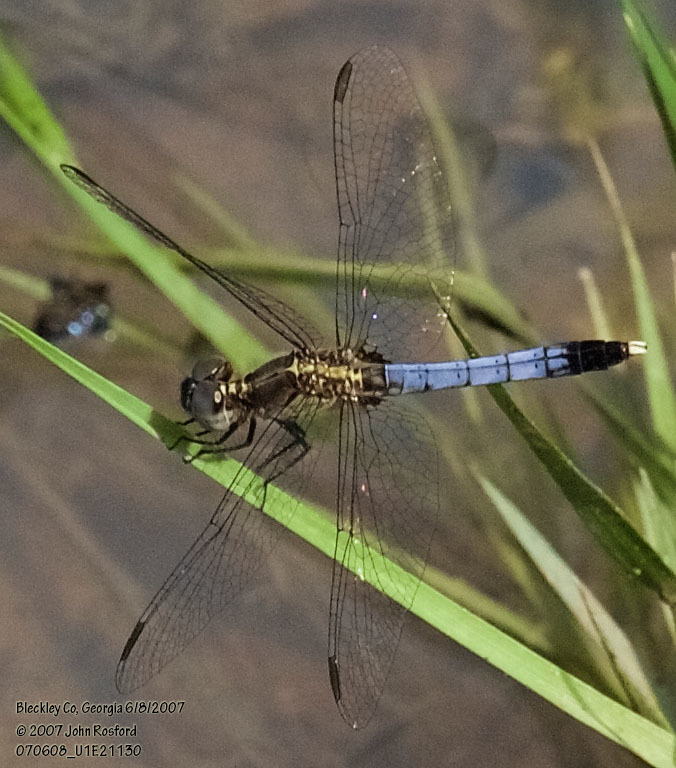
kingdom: Animalia
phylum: Arthropoda
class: Insecta
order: Odonata
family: Libellulidae
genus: Erythrodiplax
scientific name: Erythrodiplax minuscula
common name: Little blue dragonlet
